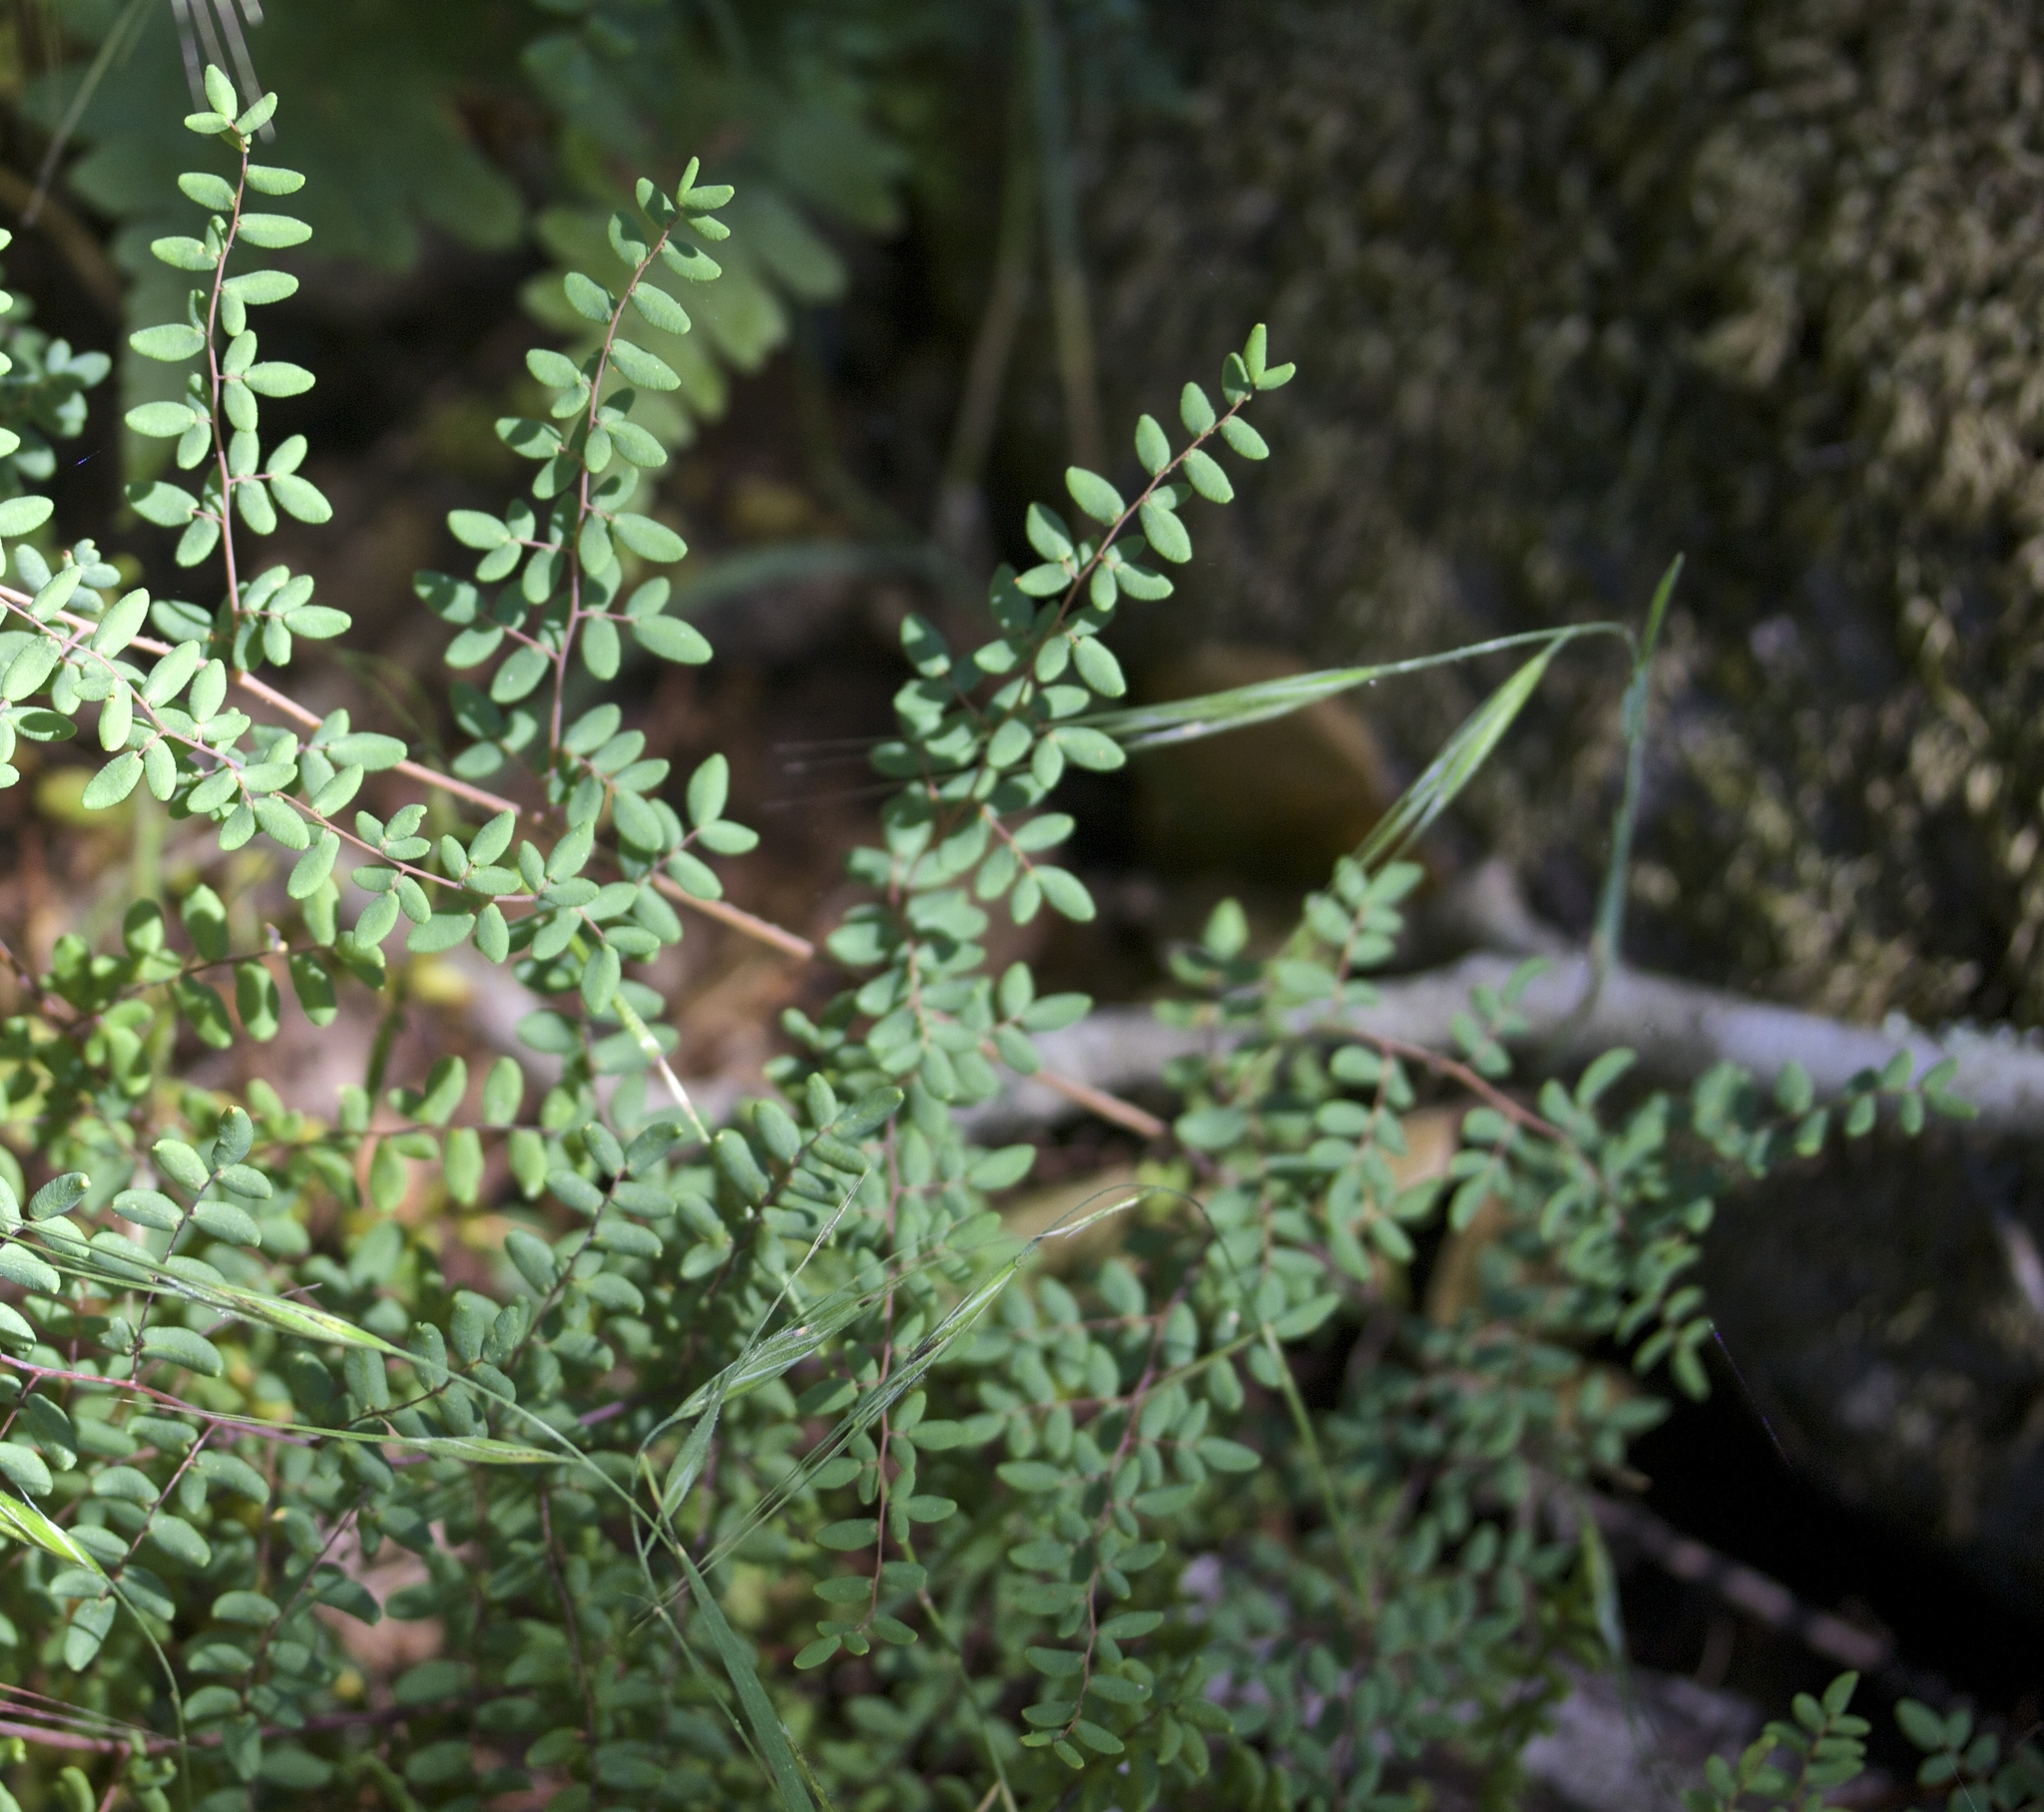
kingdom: Plantae
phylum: Tracheophyta
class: Polypodiopsida
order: Polypodiales
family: Pteridaceae
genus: Pellaea
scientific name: Pellaea andromedifolia
